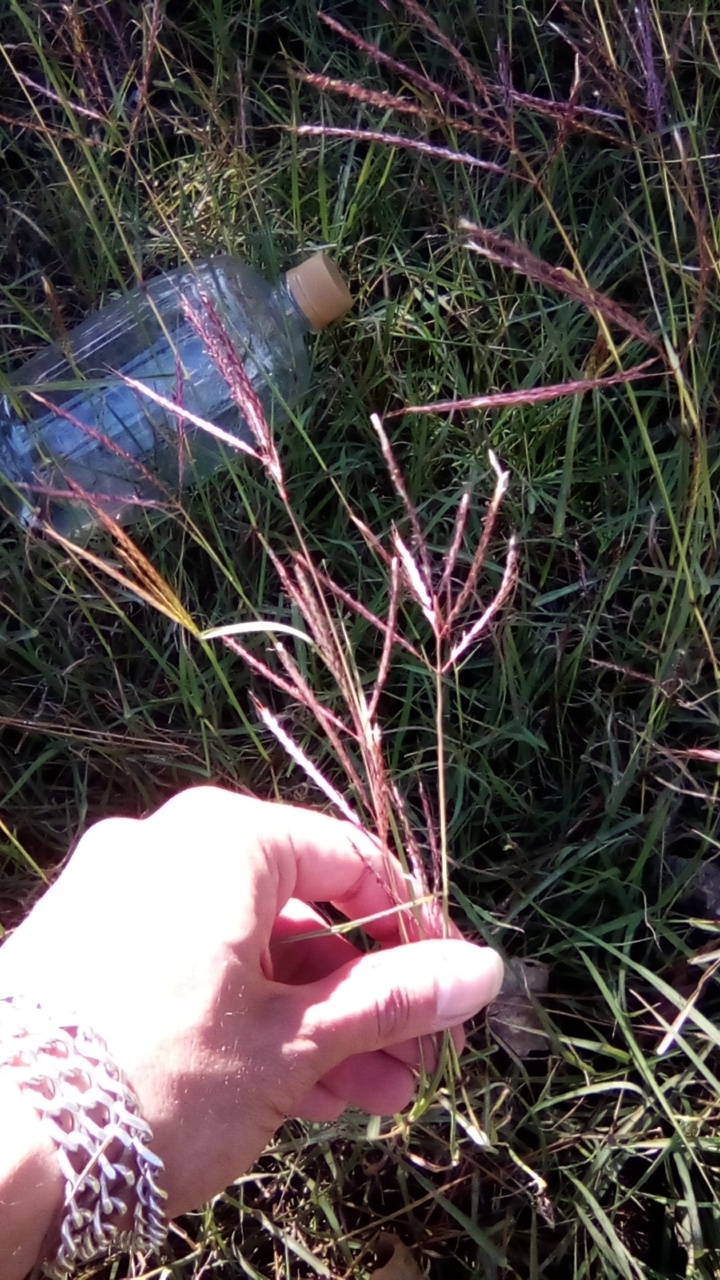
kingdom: Plantae
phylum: Tracheophyta
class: Liliopsida
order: Poales
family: Poaceae
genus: Bothriochloa
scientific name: Bothriochloa ischaemum
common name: Yellow bluestem
